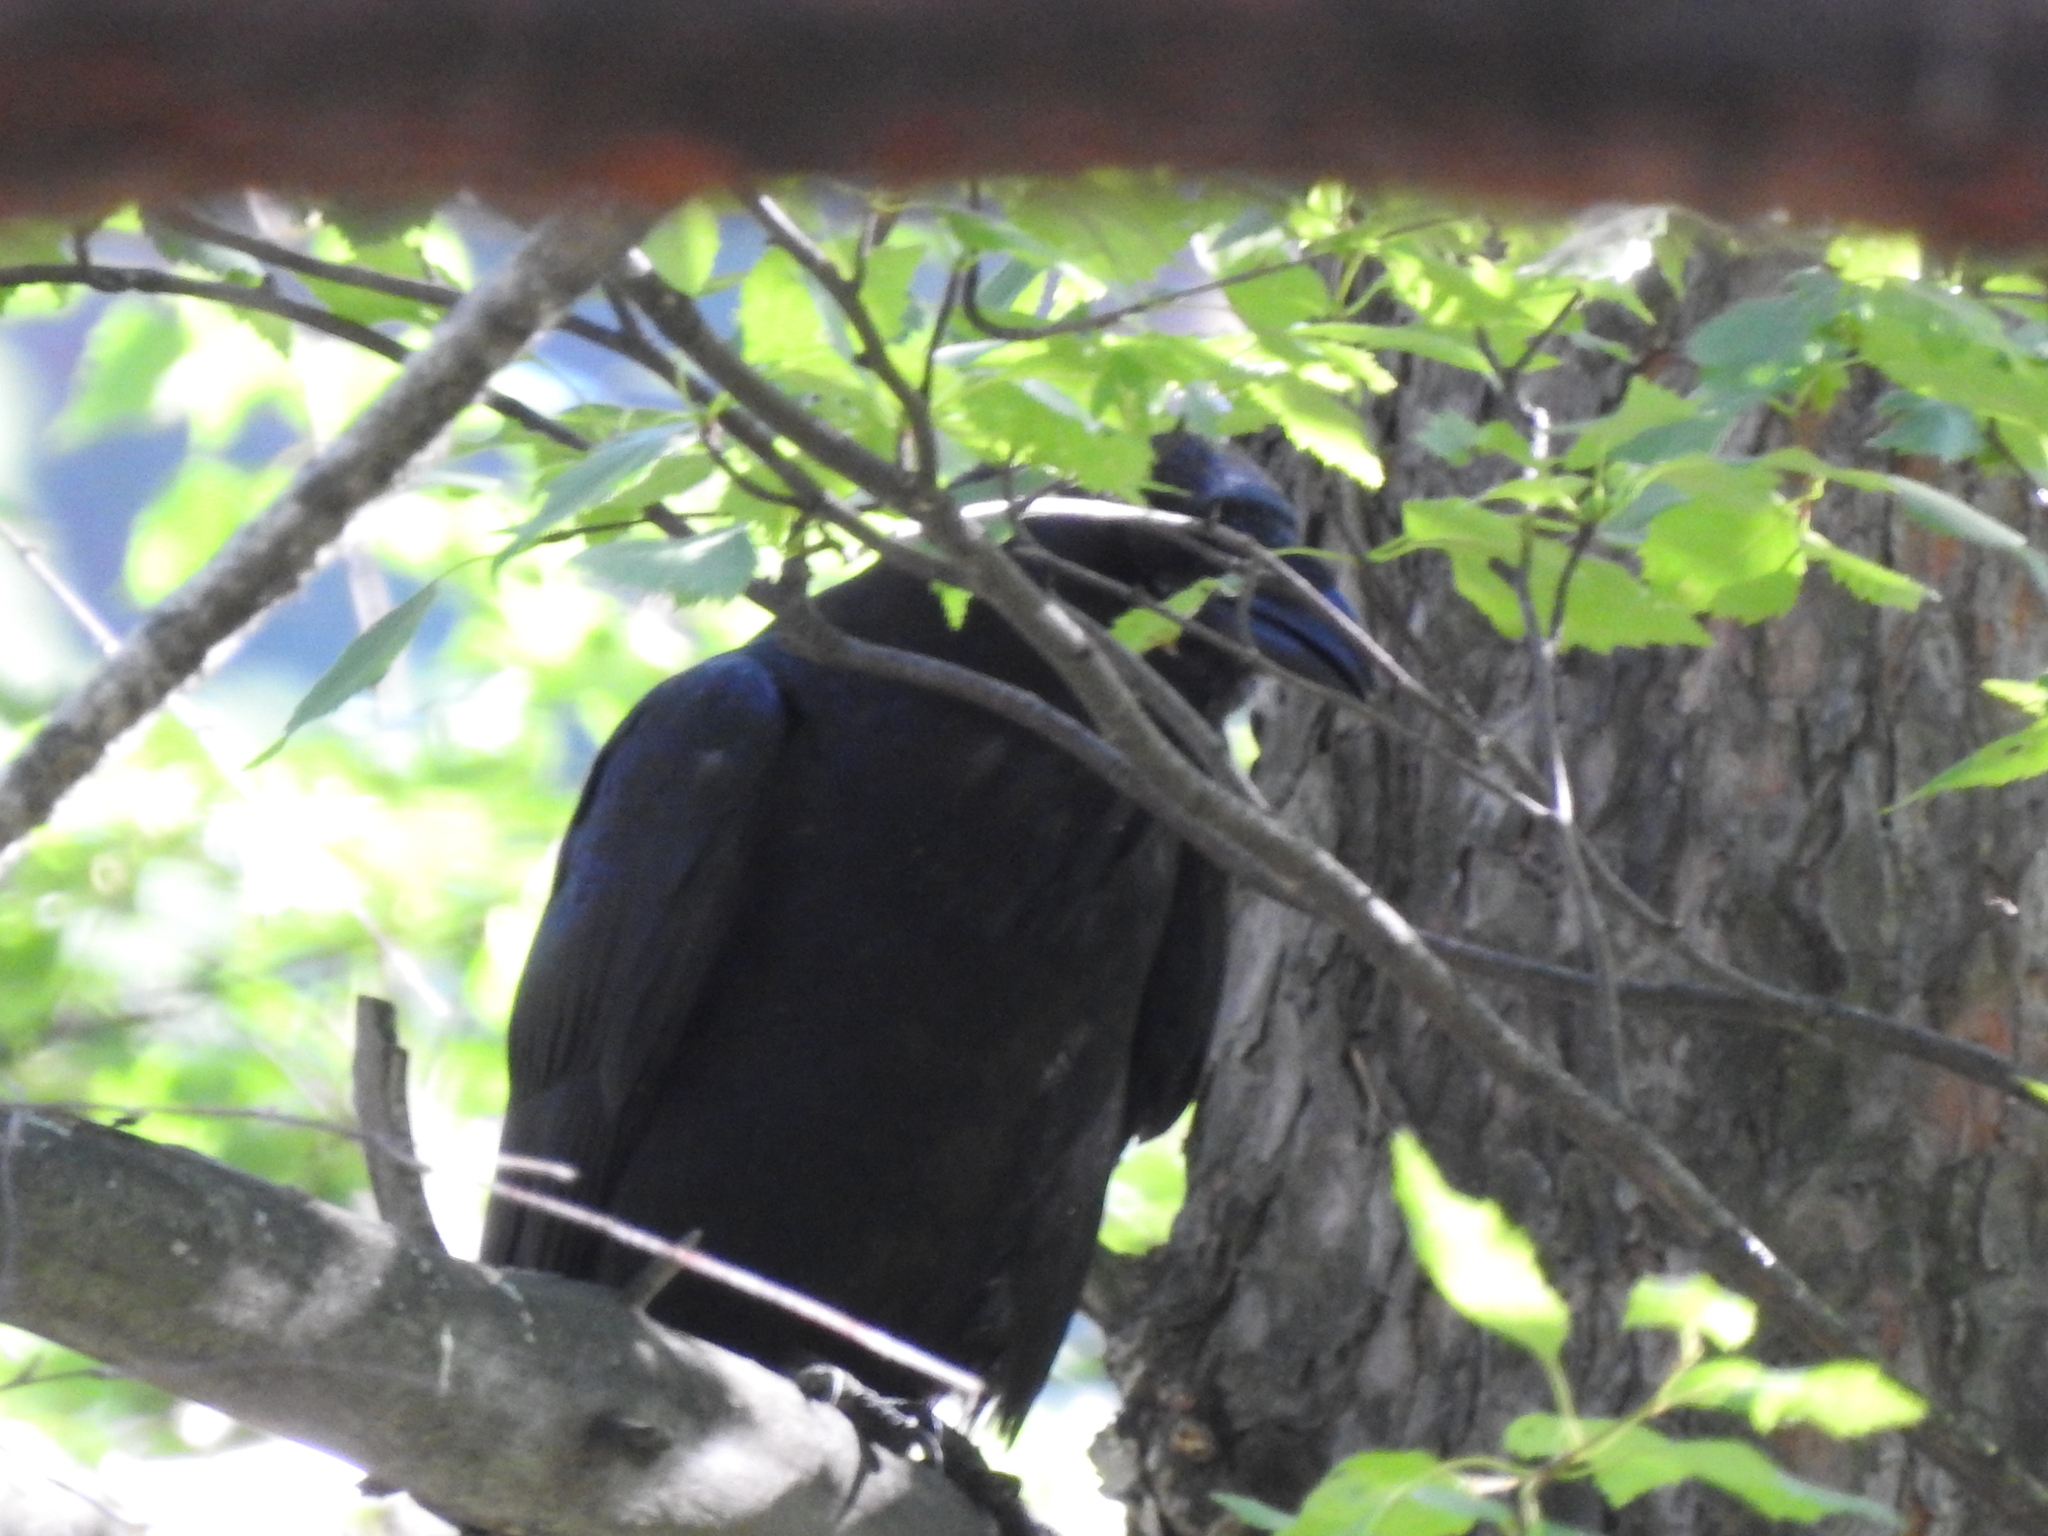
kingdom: Animalia
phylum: Chordata
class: Aves
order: Passeriformes
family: Corvidae
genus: Corvus
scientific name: Corvus corax
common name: Common raven
